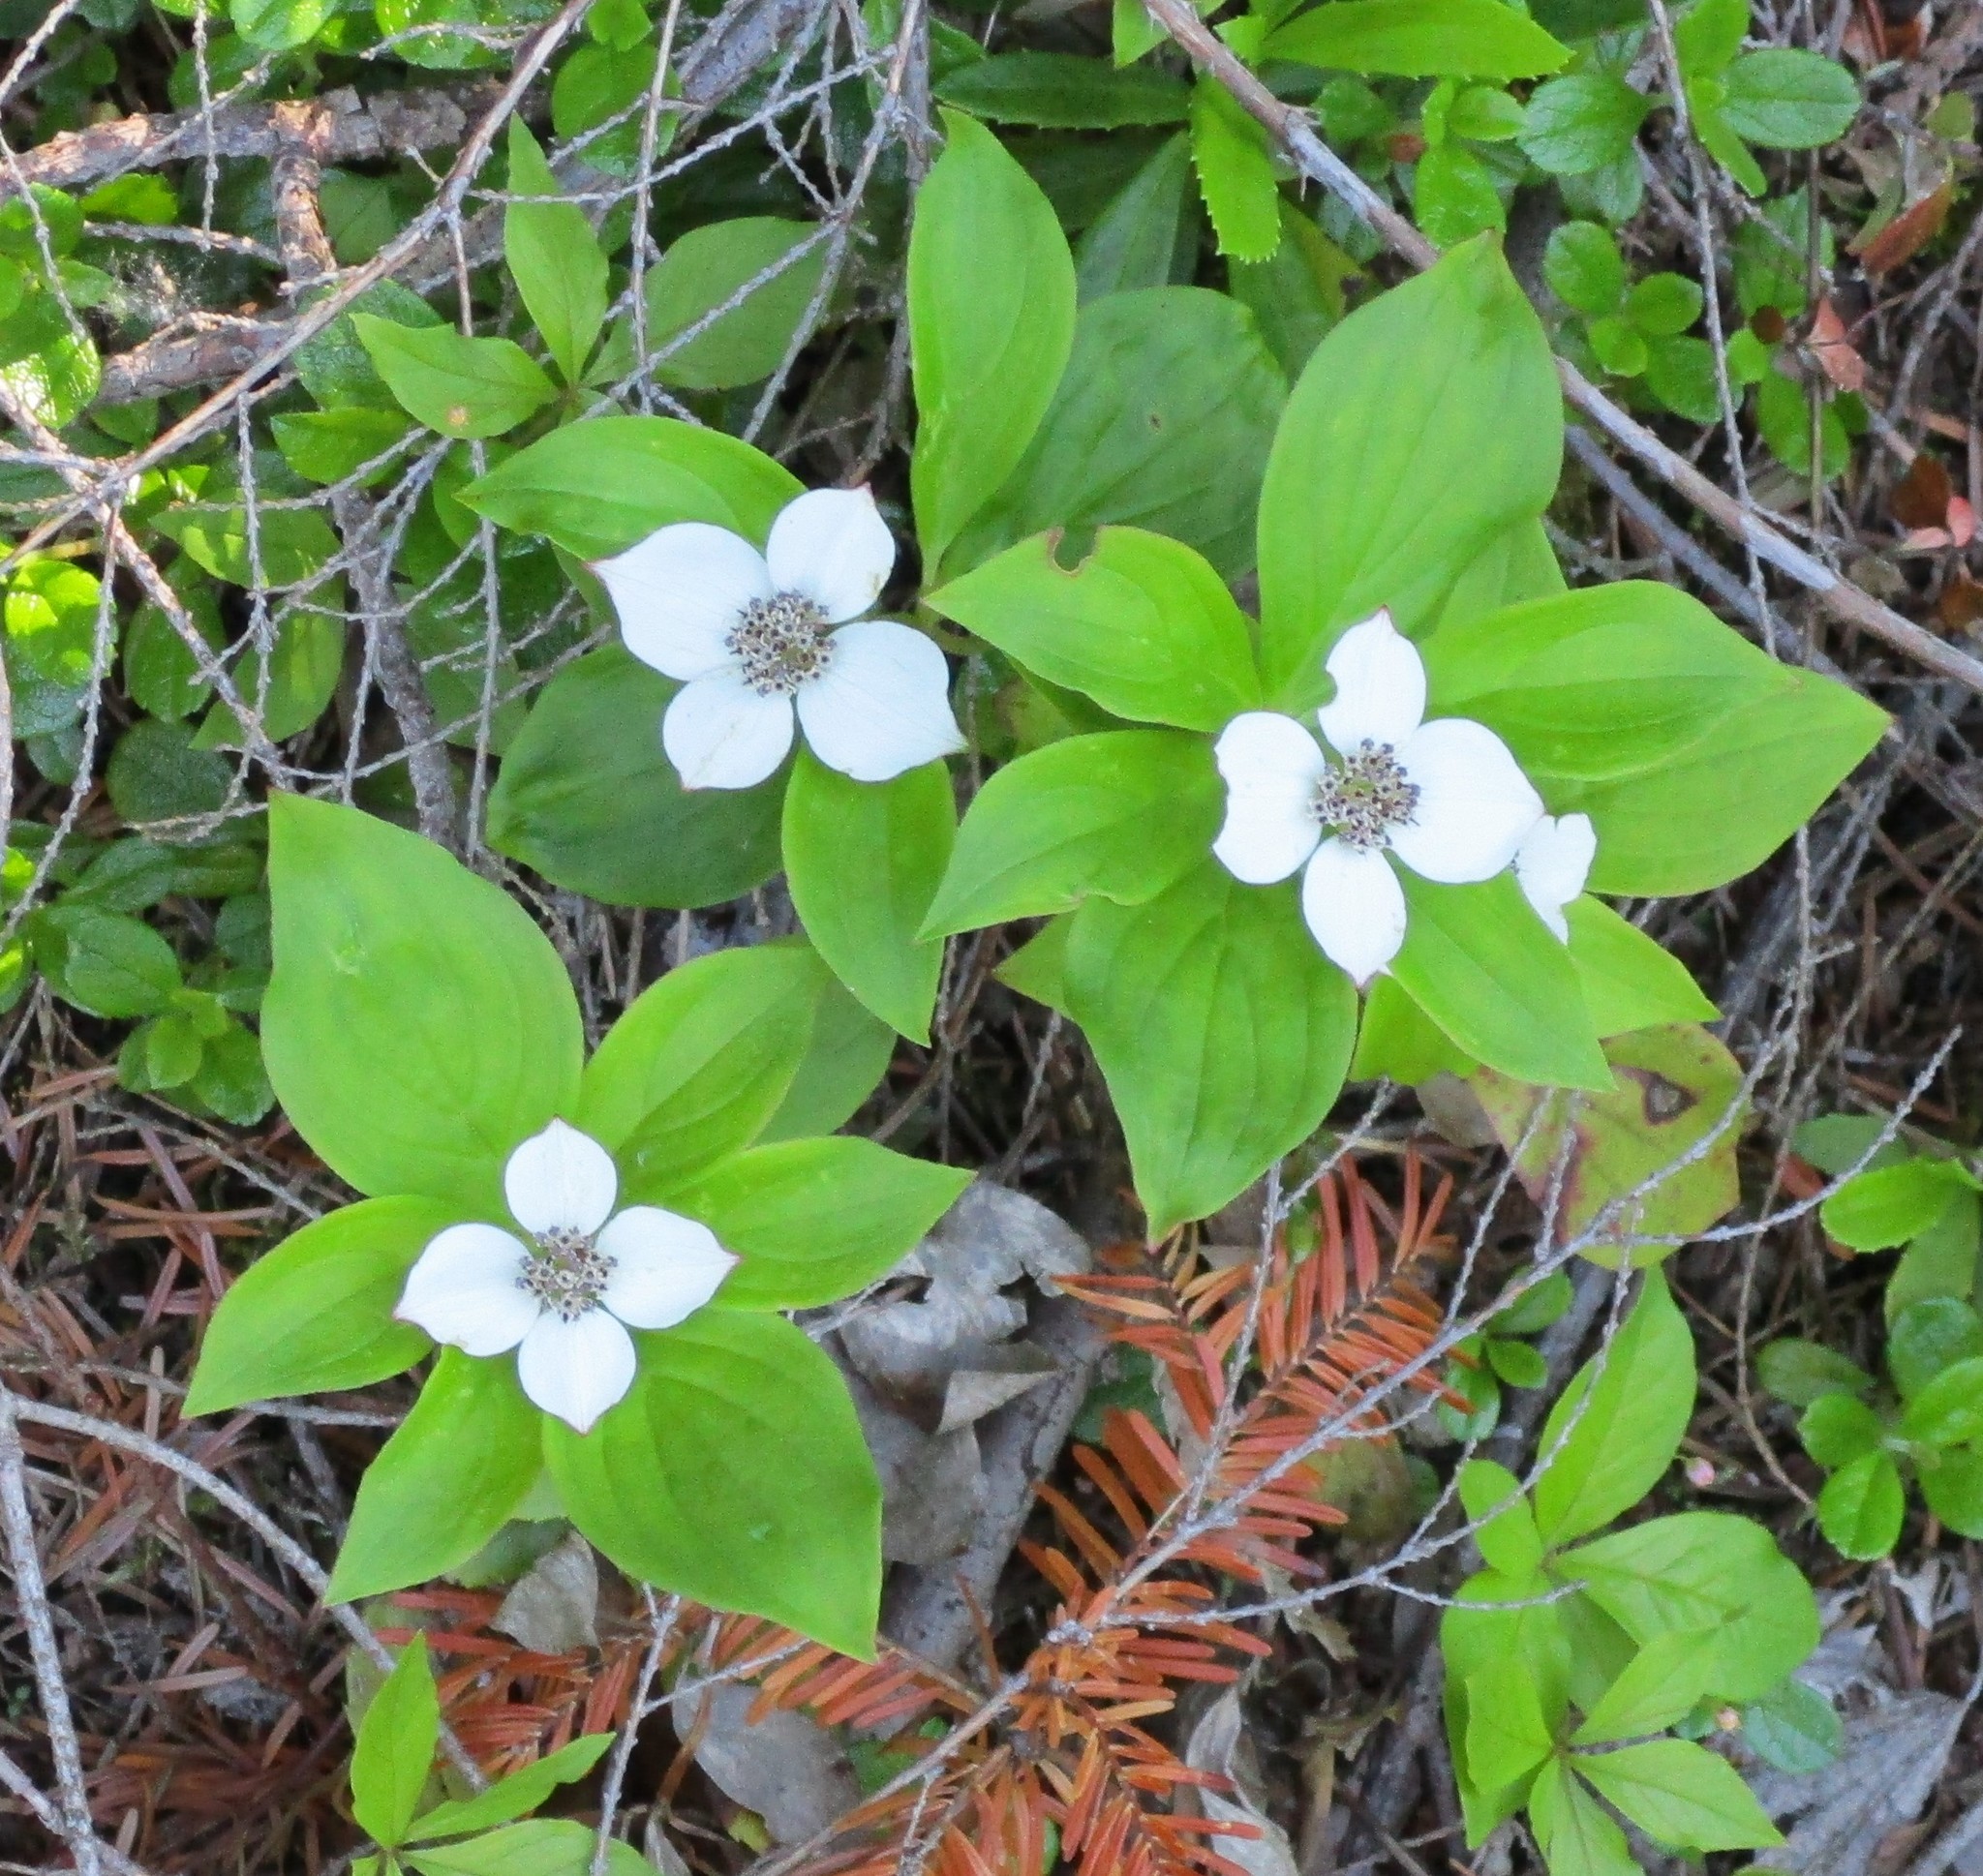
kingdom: Plantae
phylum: Tracheophyta
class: Magnoliopsida
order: Cornales
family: Cornaceae
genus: Cornus
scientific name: Cornus unalaschkensis
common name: Alaska bunchberry
